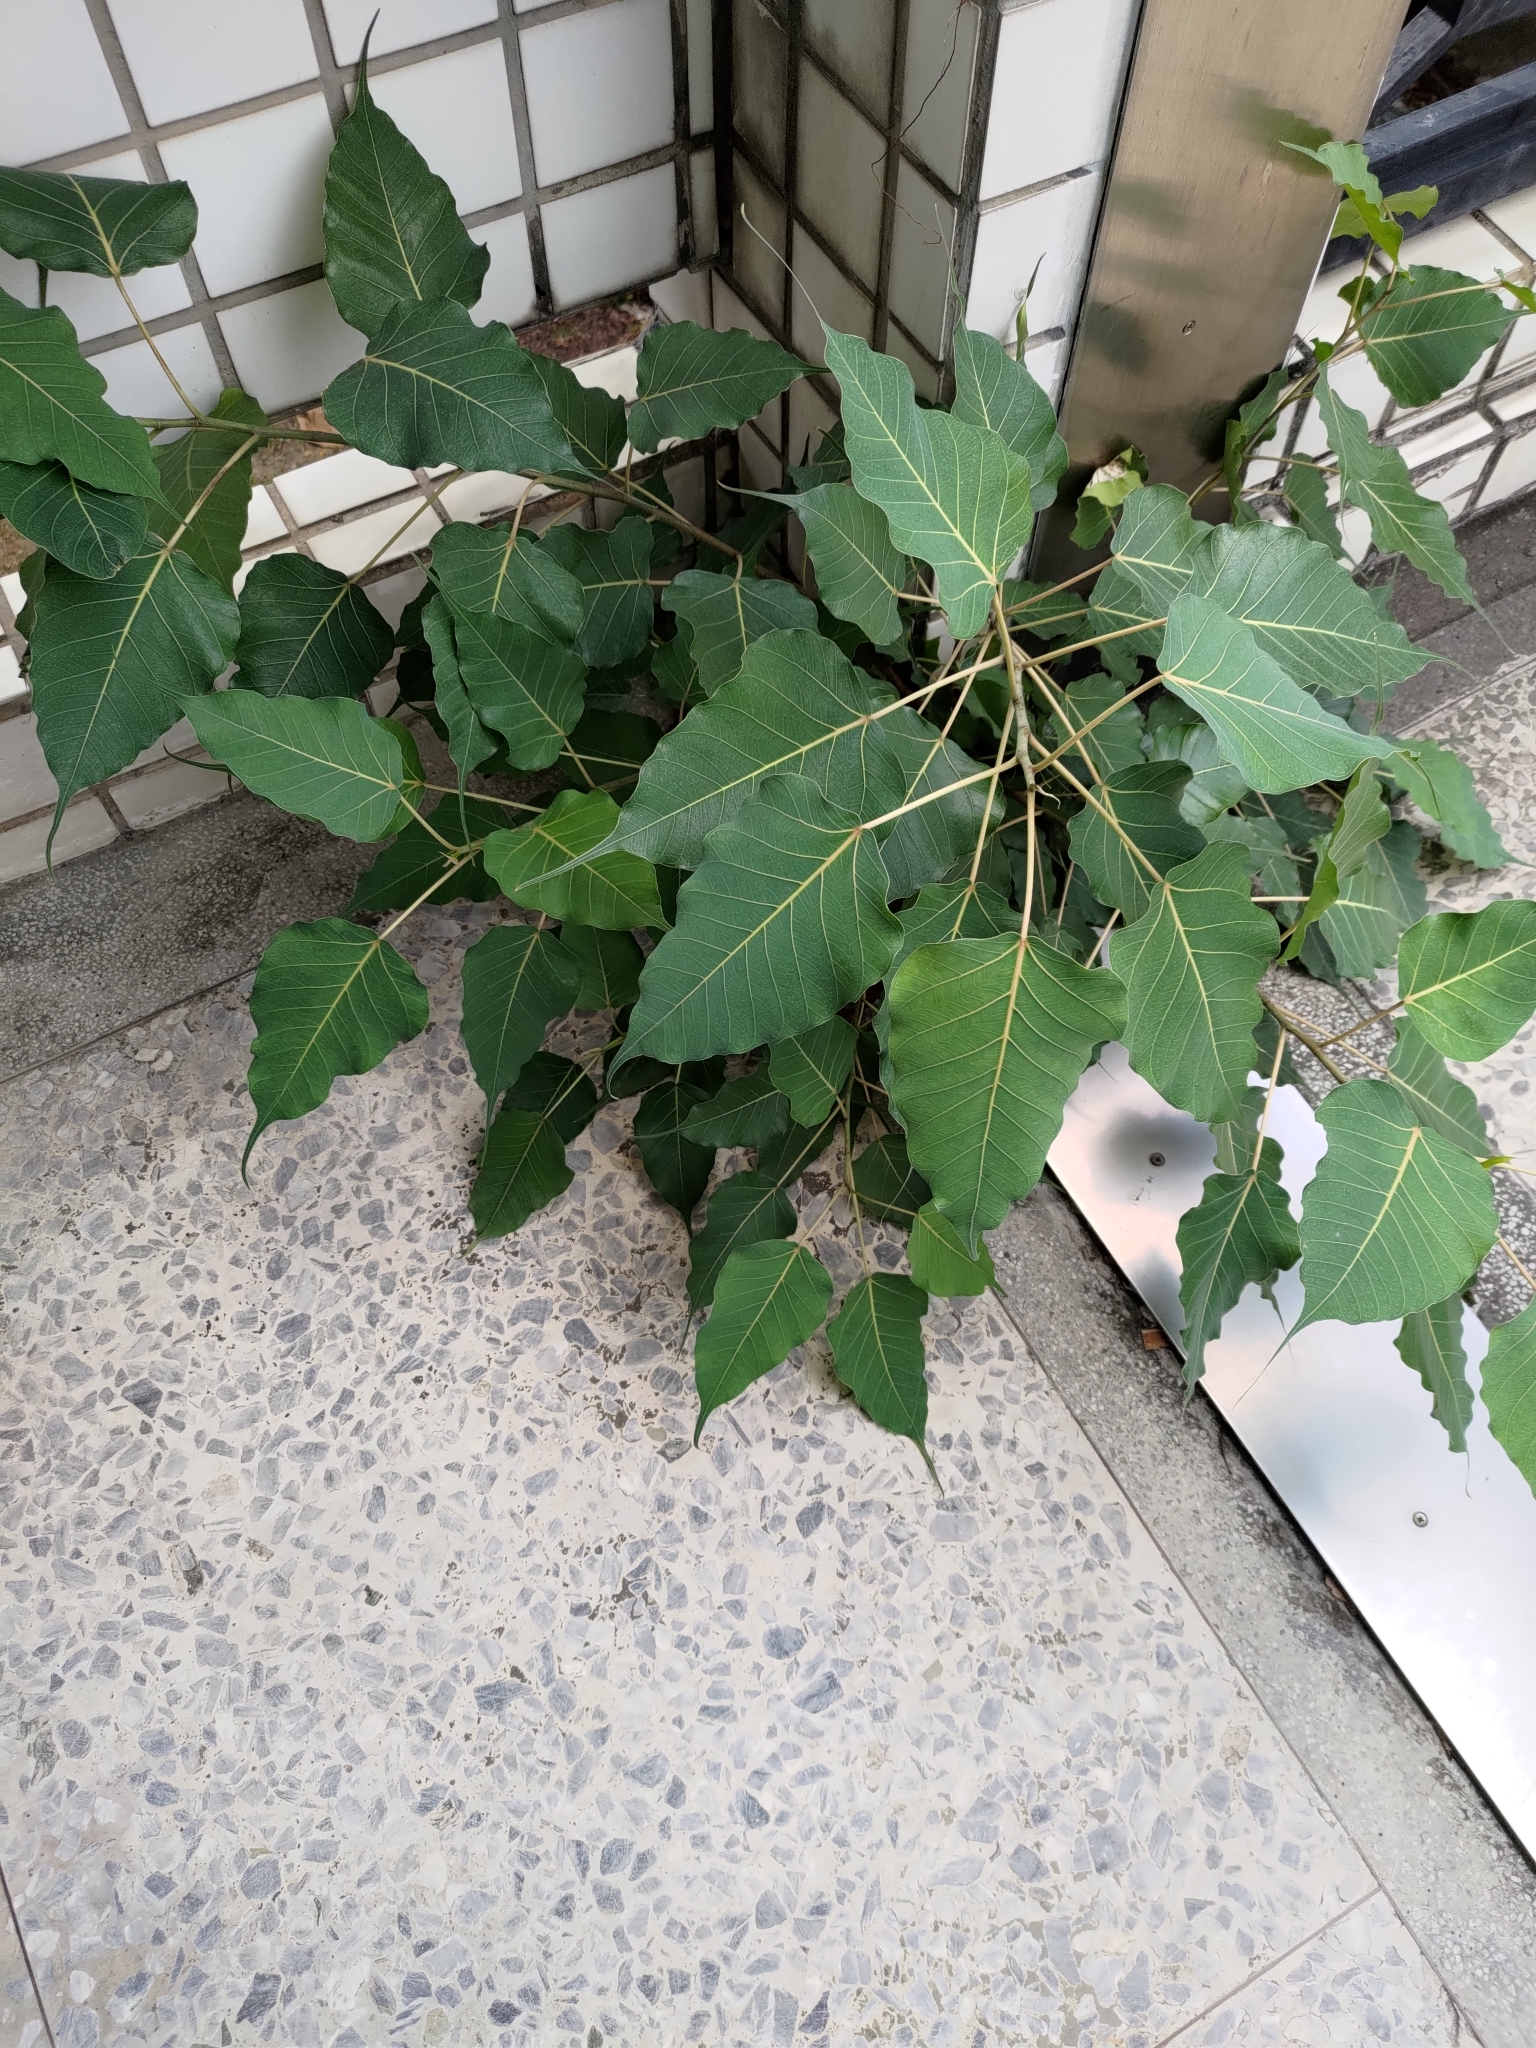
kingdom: Plantae
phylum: Tracheophyta
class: Magnoliopsida
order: Rosales
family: Moraceae
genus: Ficus
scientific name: Ficus religiosa
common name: Bodhi tree
